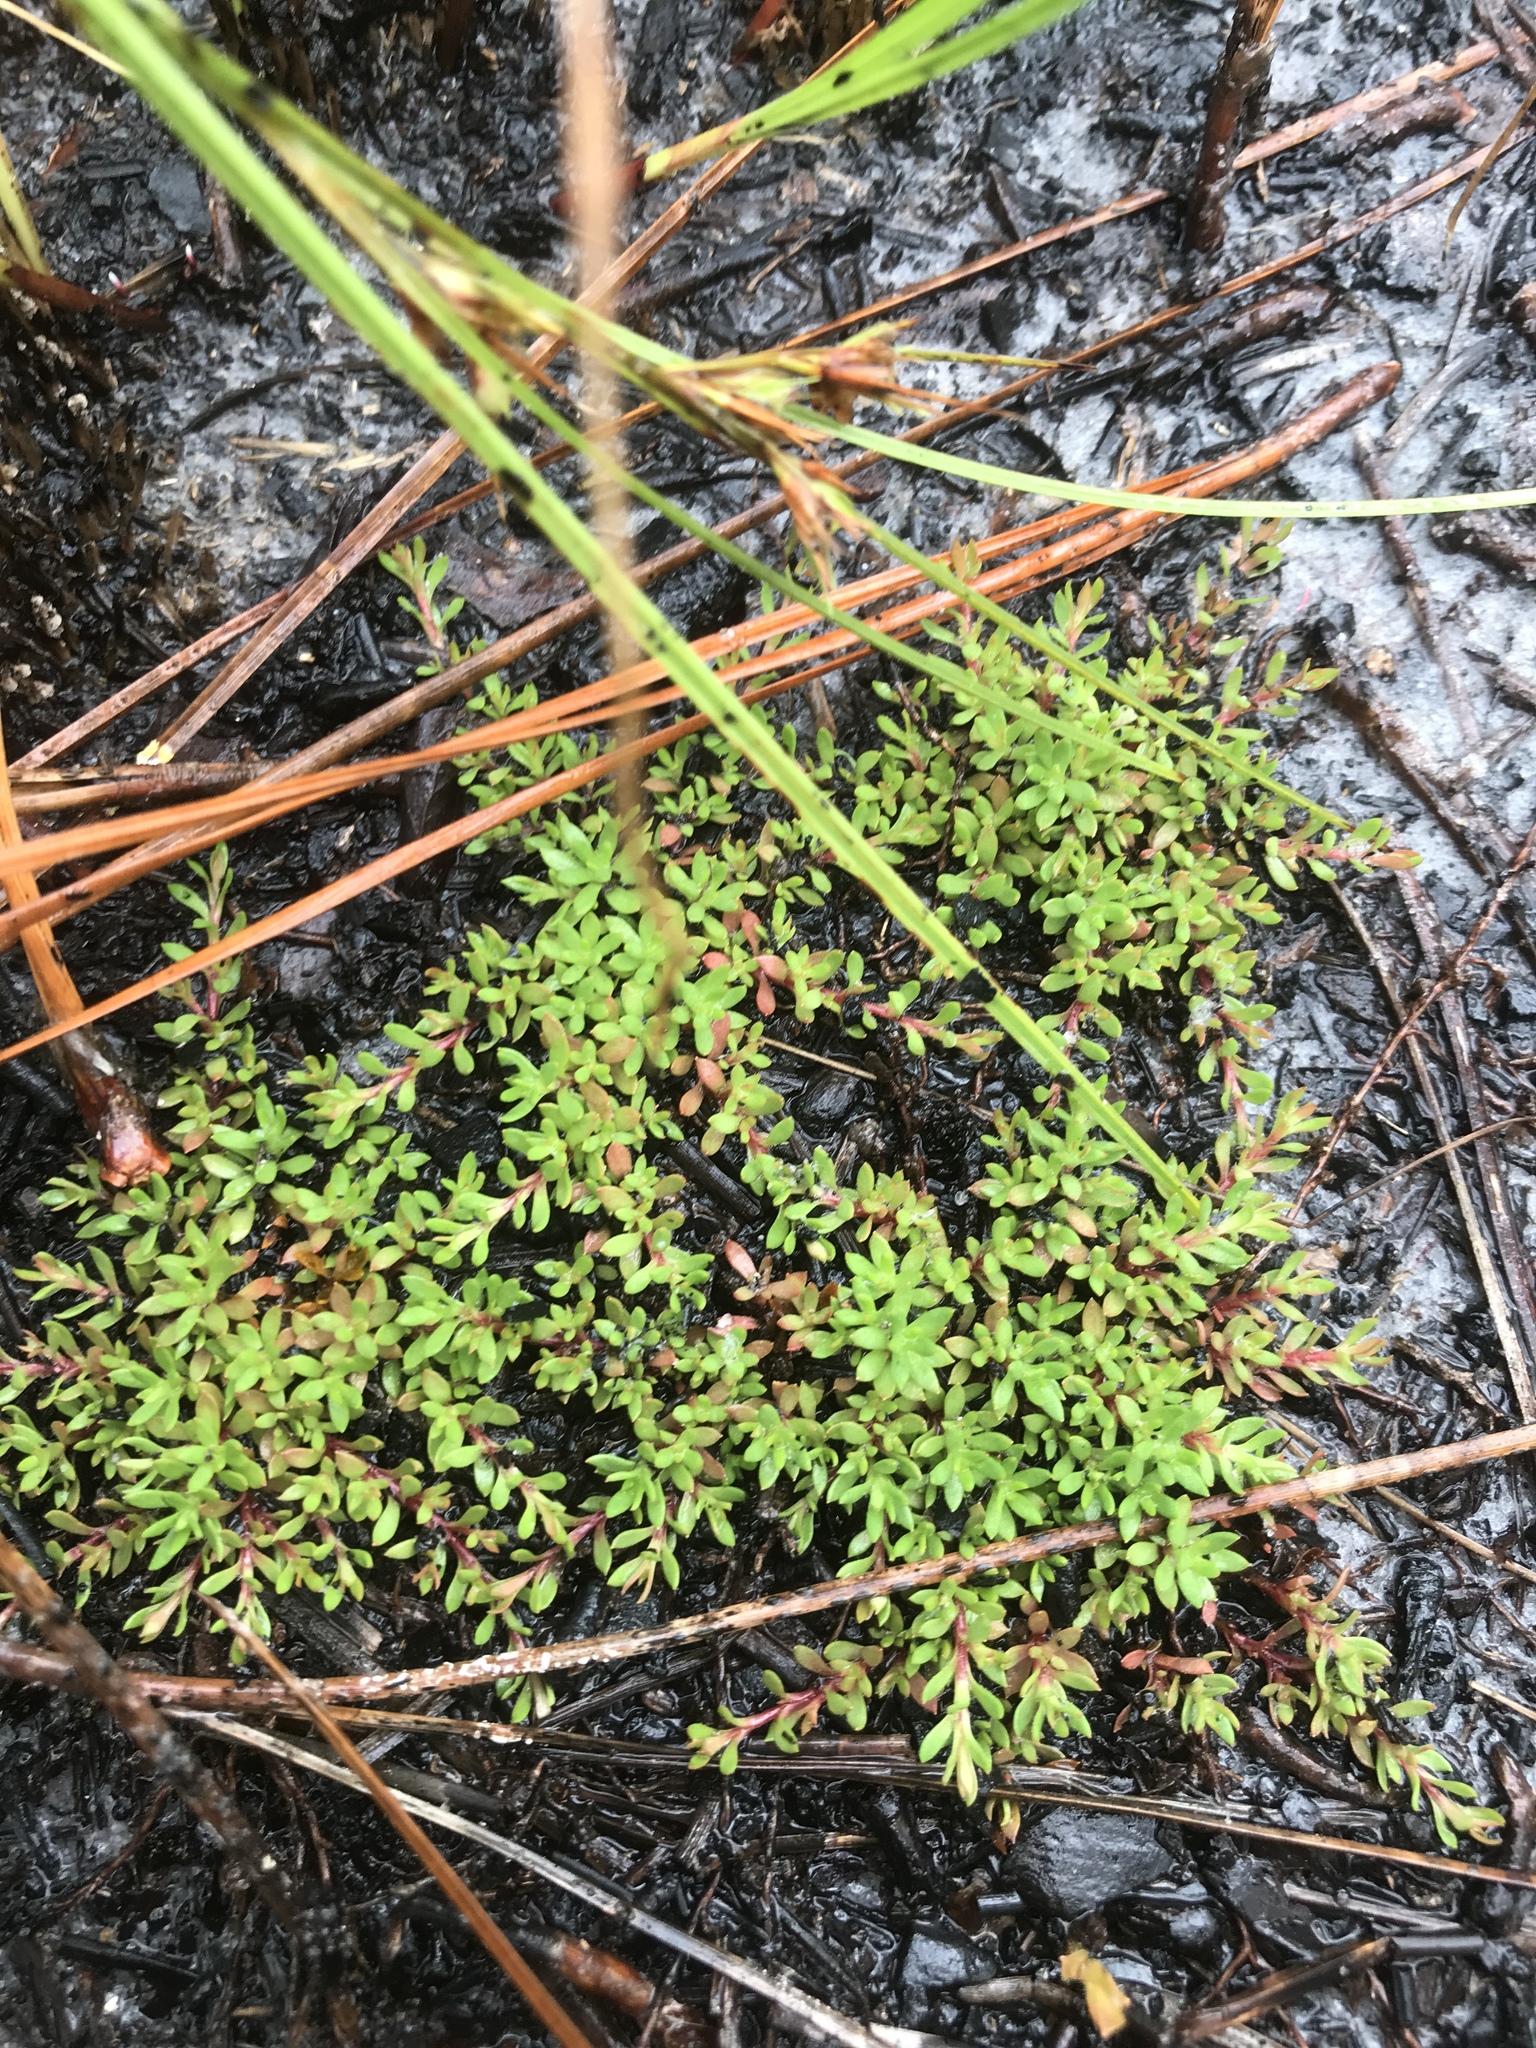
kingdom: Plantae
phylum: Tracheophyta
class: Magnoliopsida
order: Ericales
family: Diapensiaceae
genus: Pyxidanthera
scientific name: Pyxidanthera barbulata
